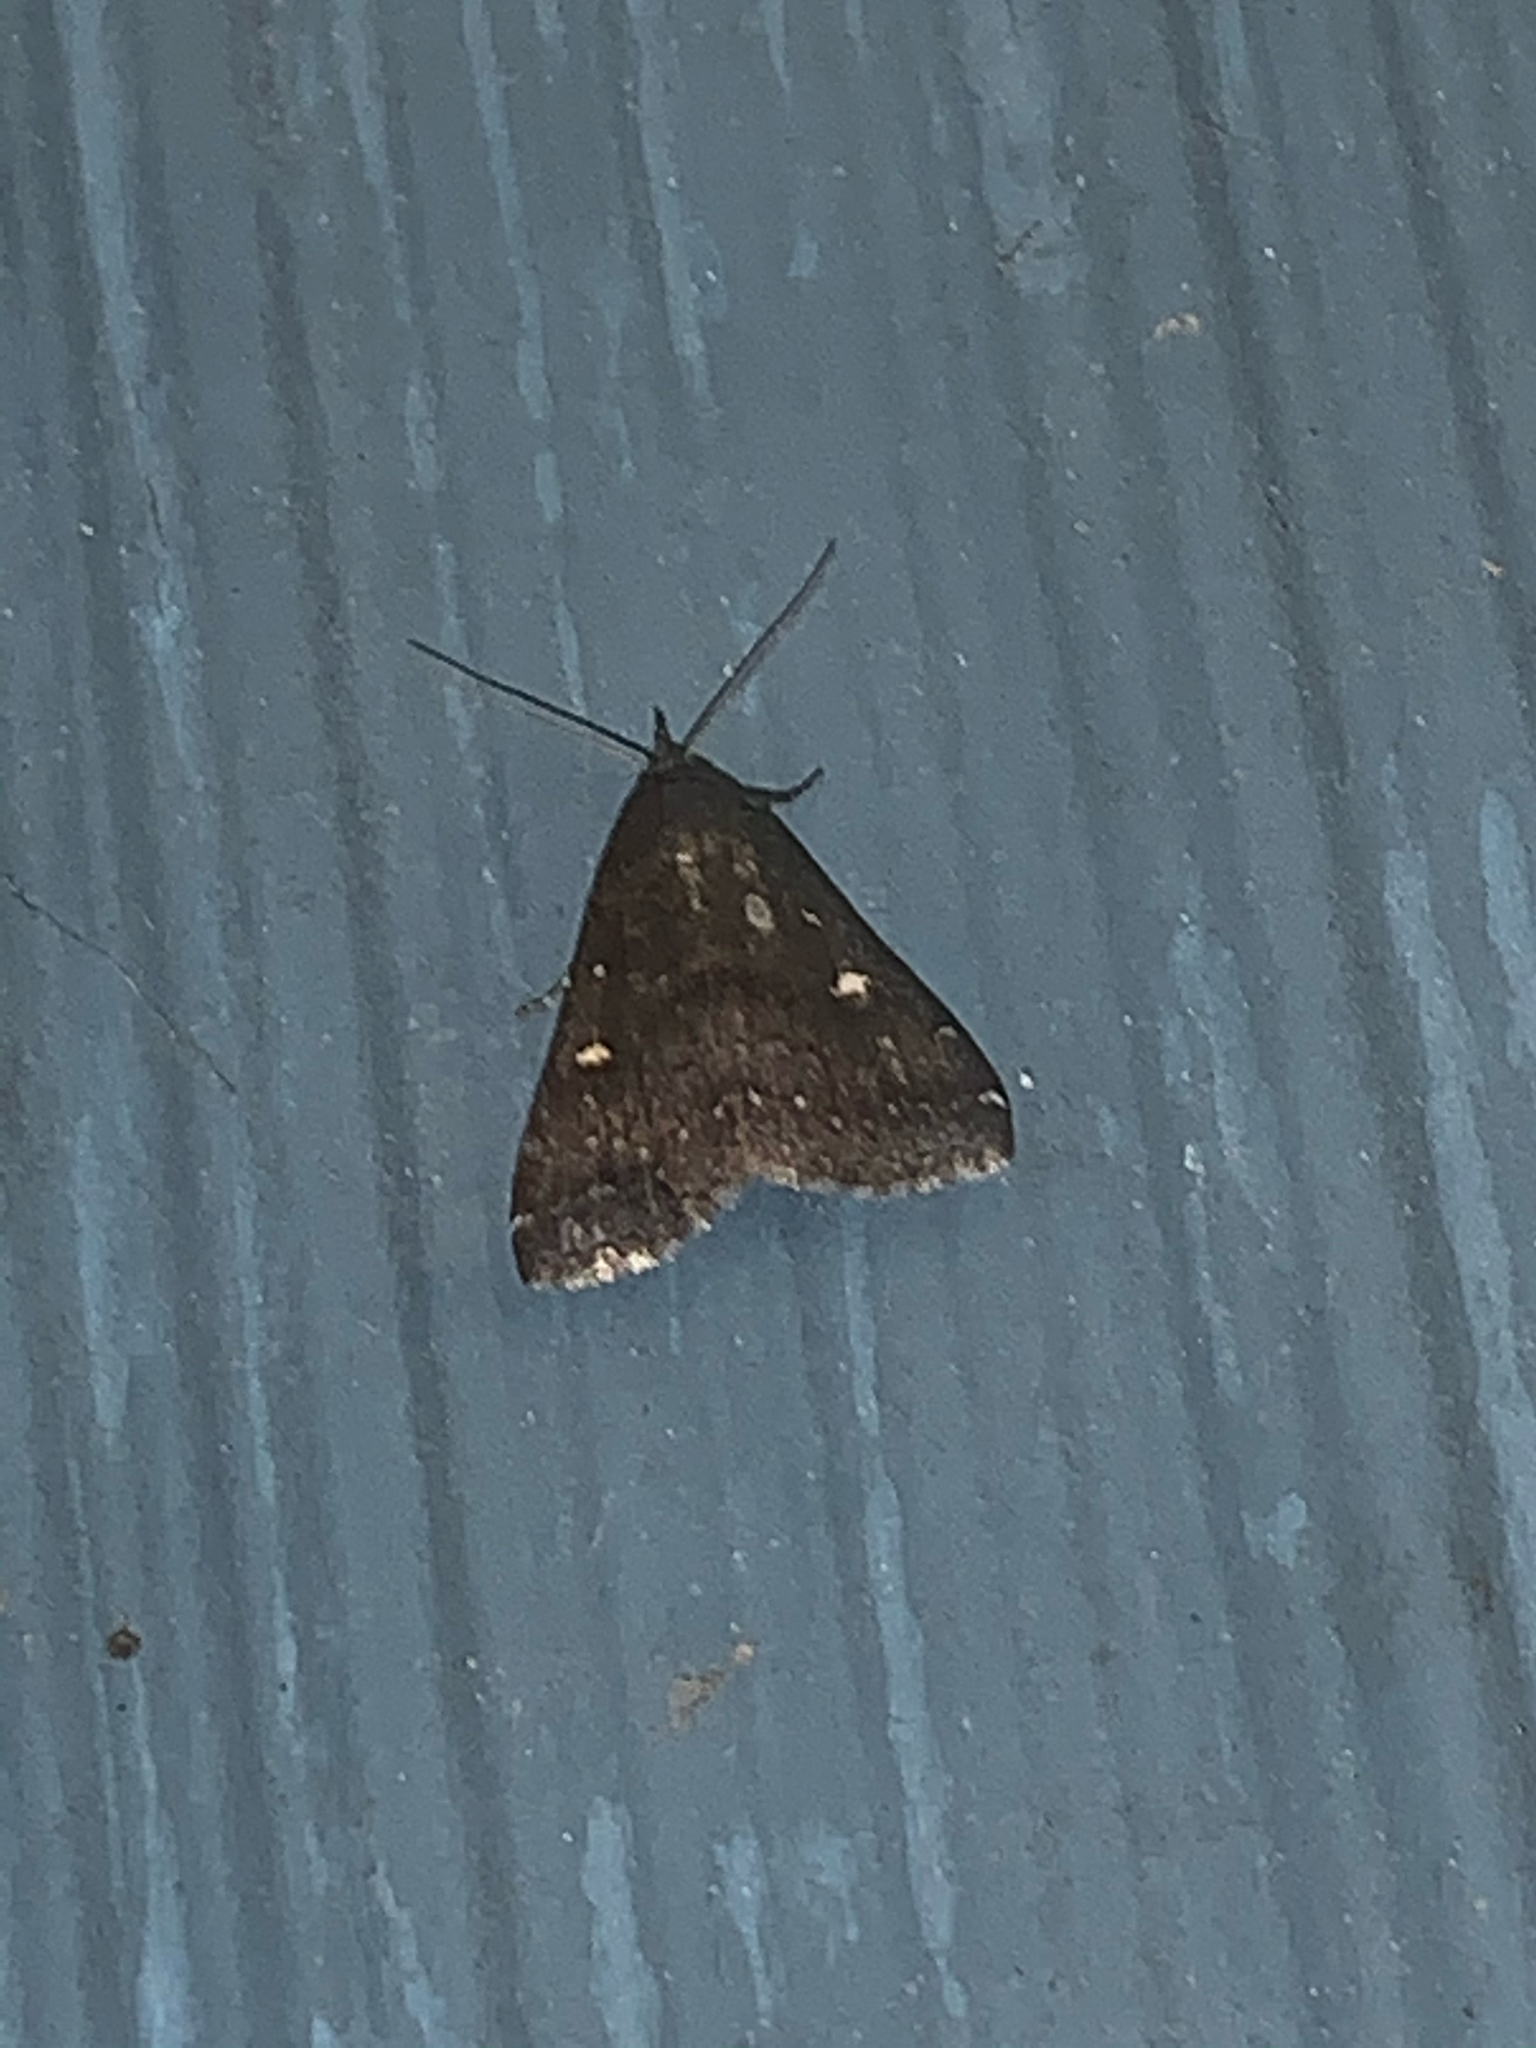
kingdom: Animalia
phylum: Arthropoda
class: Insecta
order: Lepidoptera
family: Erebidae
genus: Tetanolita
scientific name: Tetanolita mynesalis
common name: Smoky tetanolita moth
